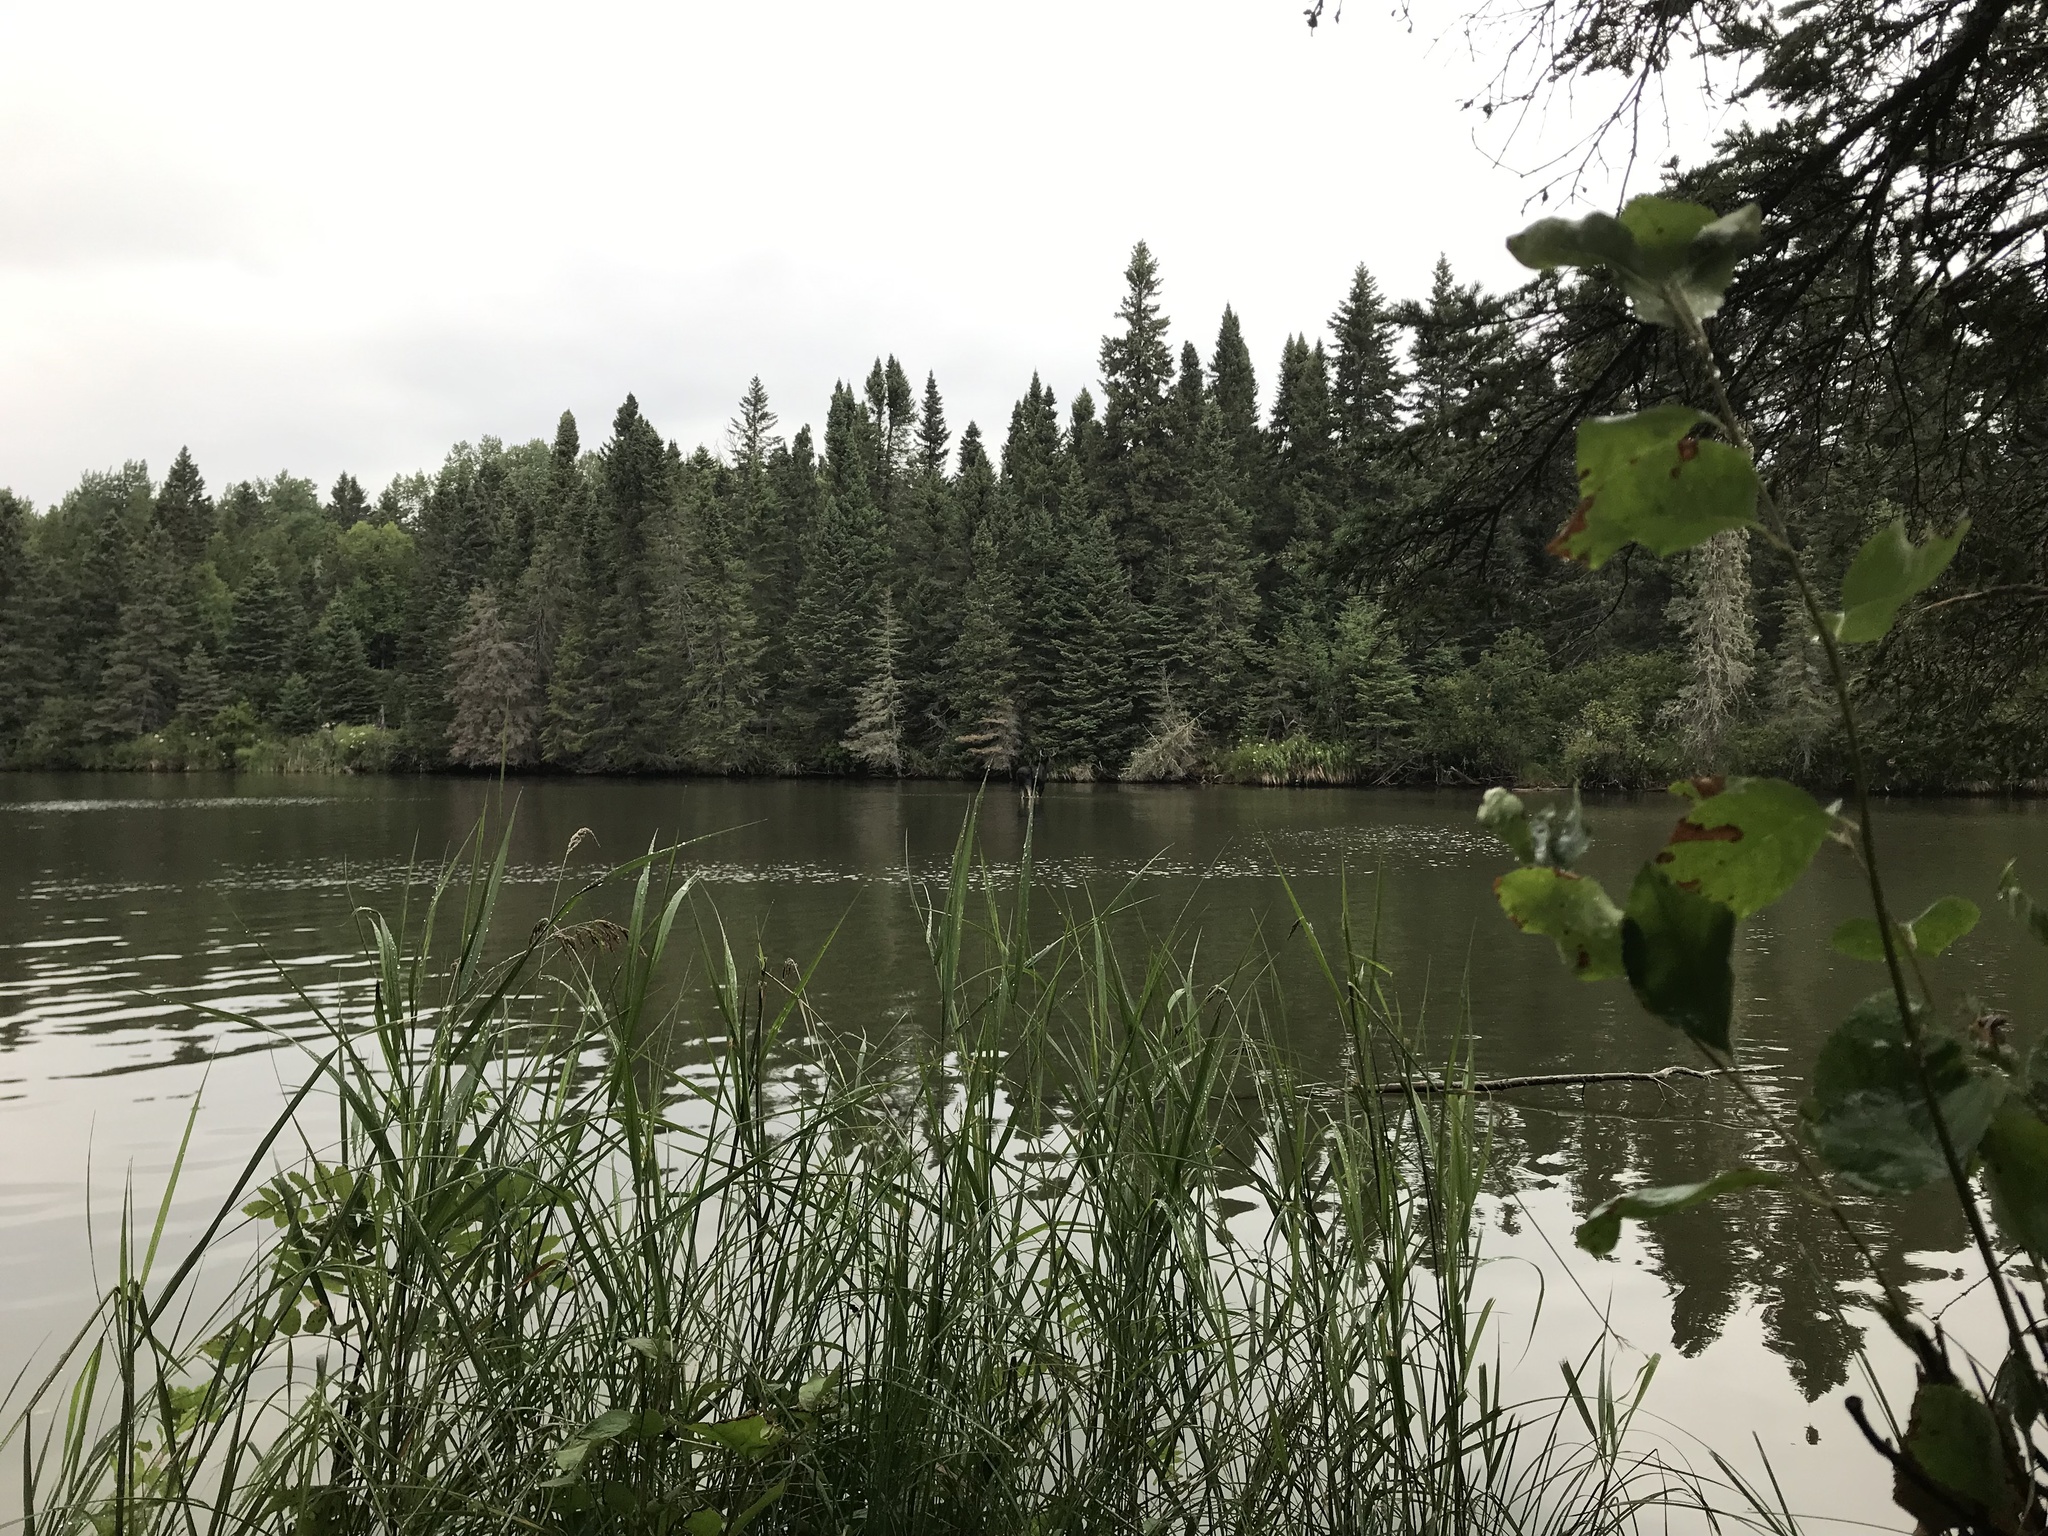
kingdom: Animalia
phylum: Chordata
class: Mammalia
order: Artiodactyla
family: Cervidae
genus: Alces
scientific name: Alces alces
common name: Moose
